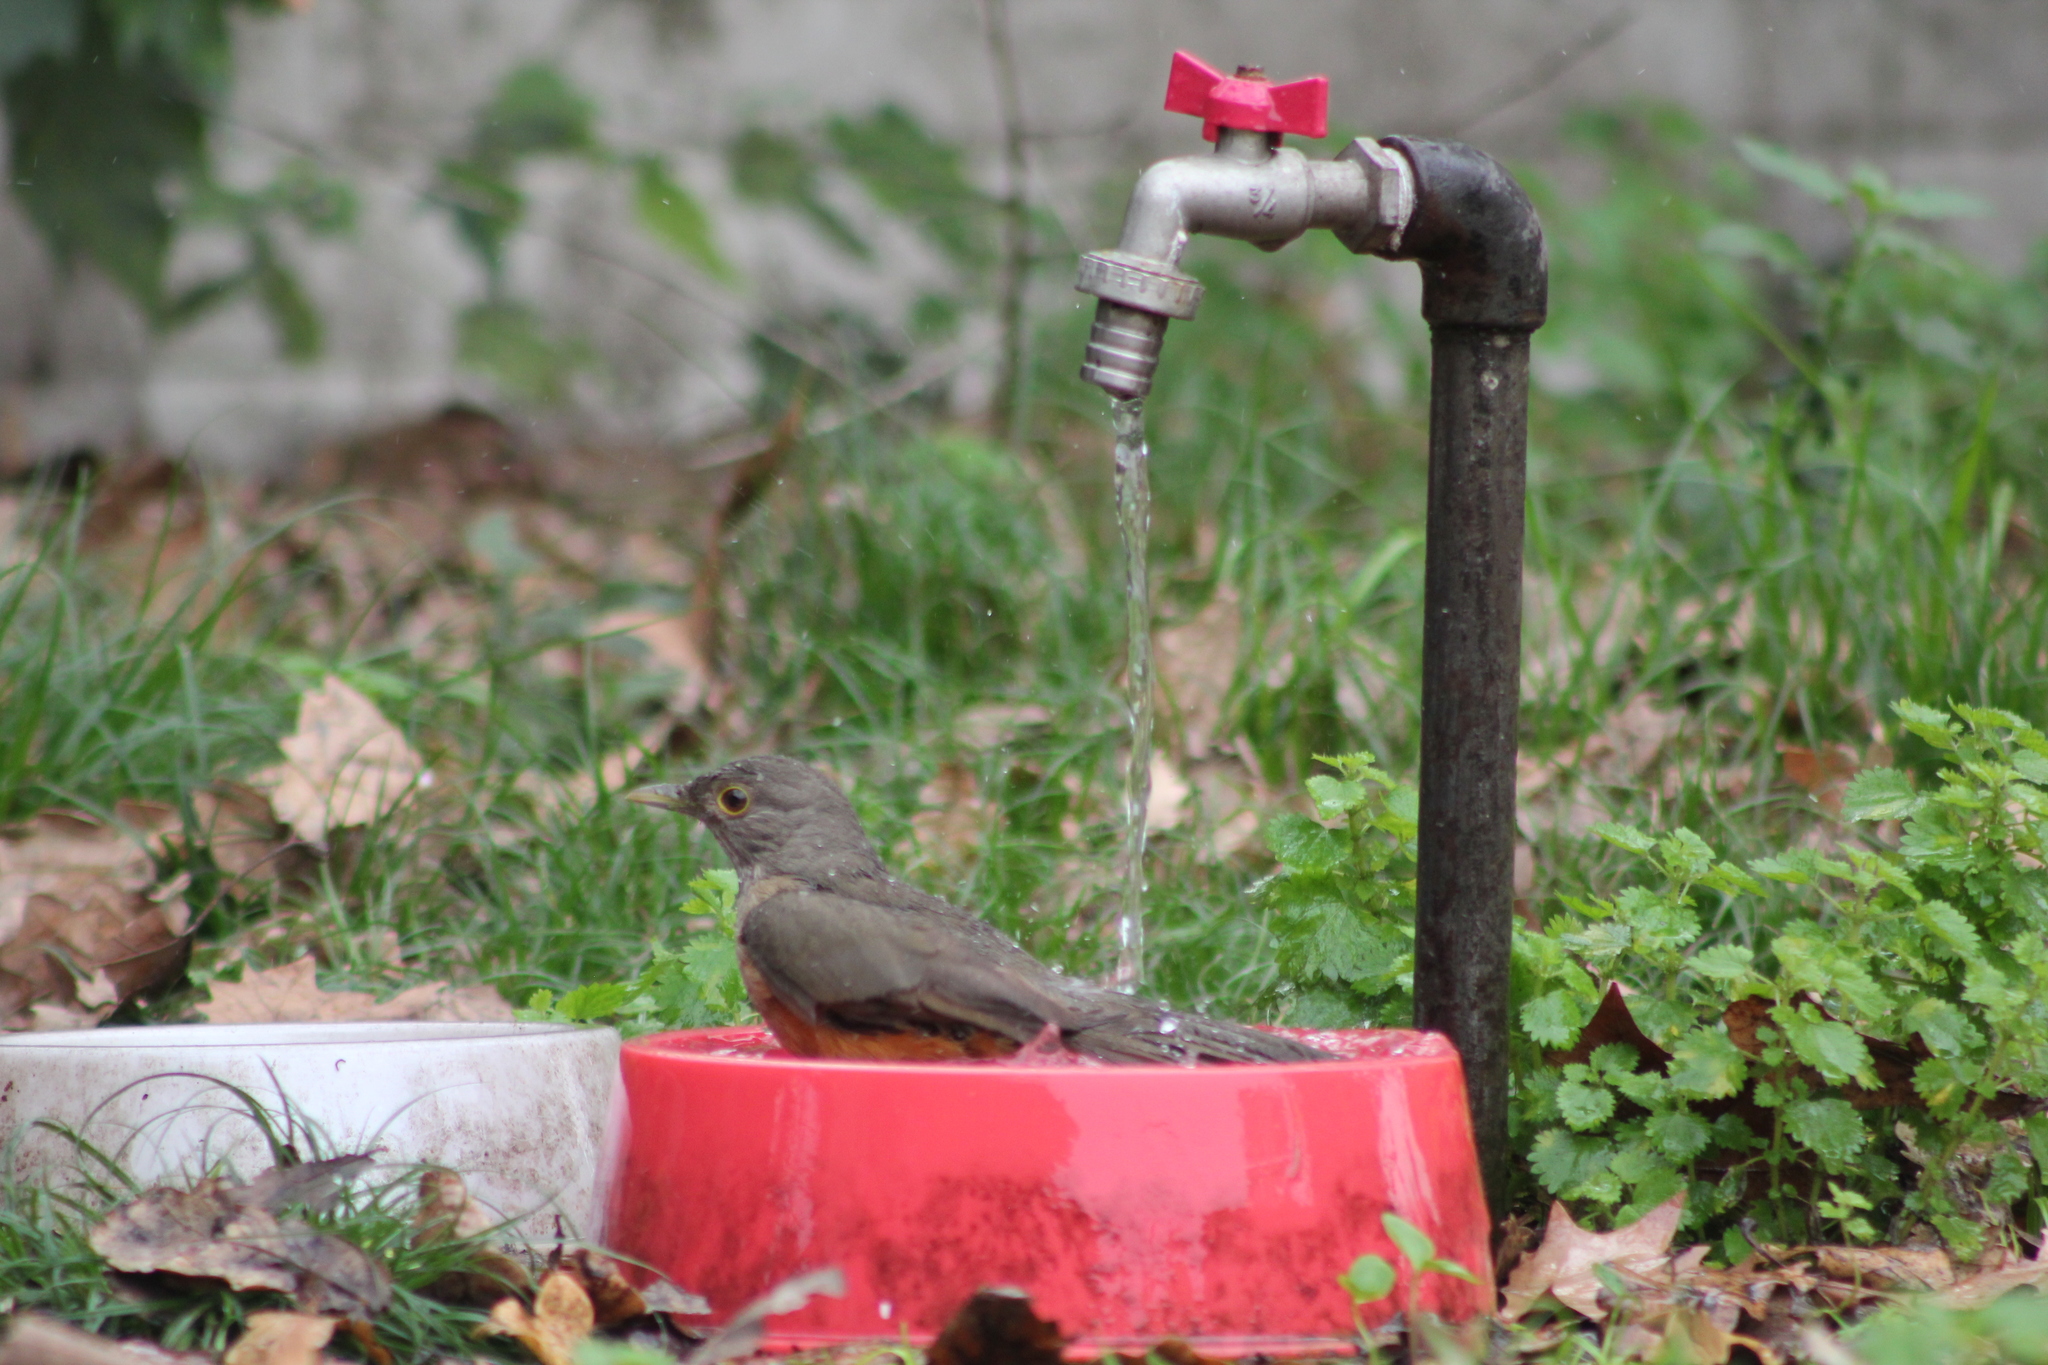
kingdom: Animalia
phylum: Chordata
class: Aves
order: Passeriformes
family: Turdidae
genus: Turdus
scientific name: Turdus rufiventris
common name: Rufous-bellied thrush
